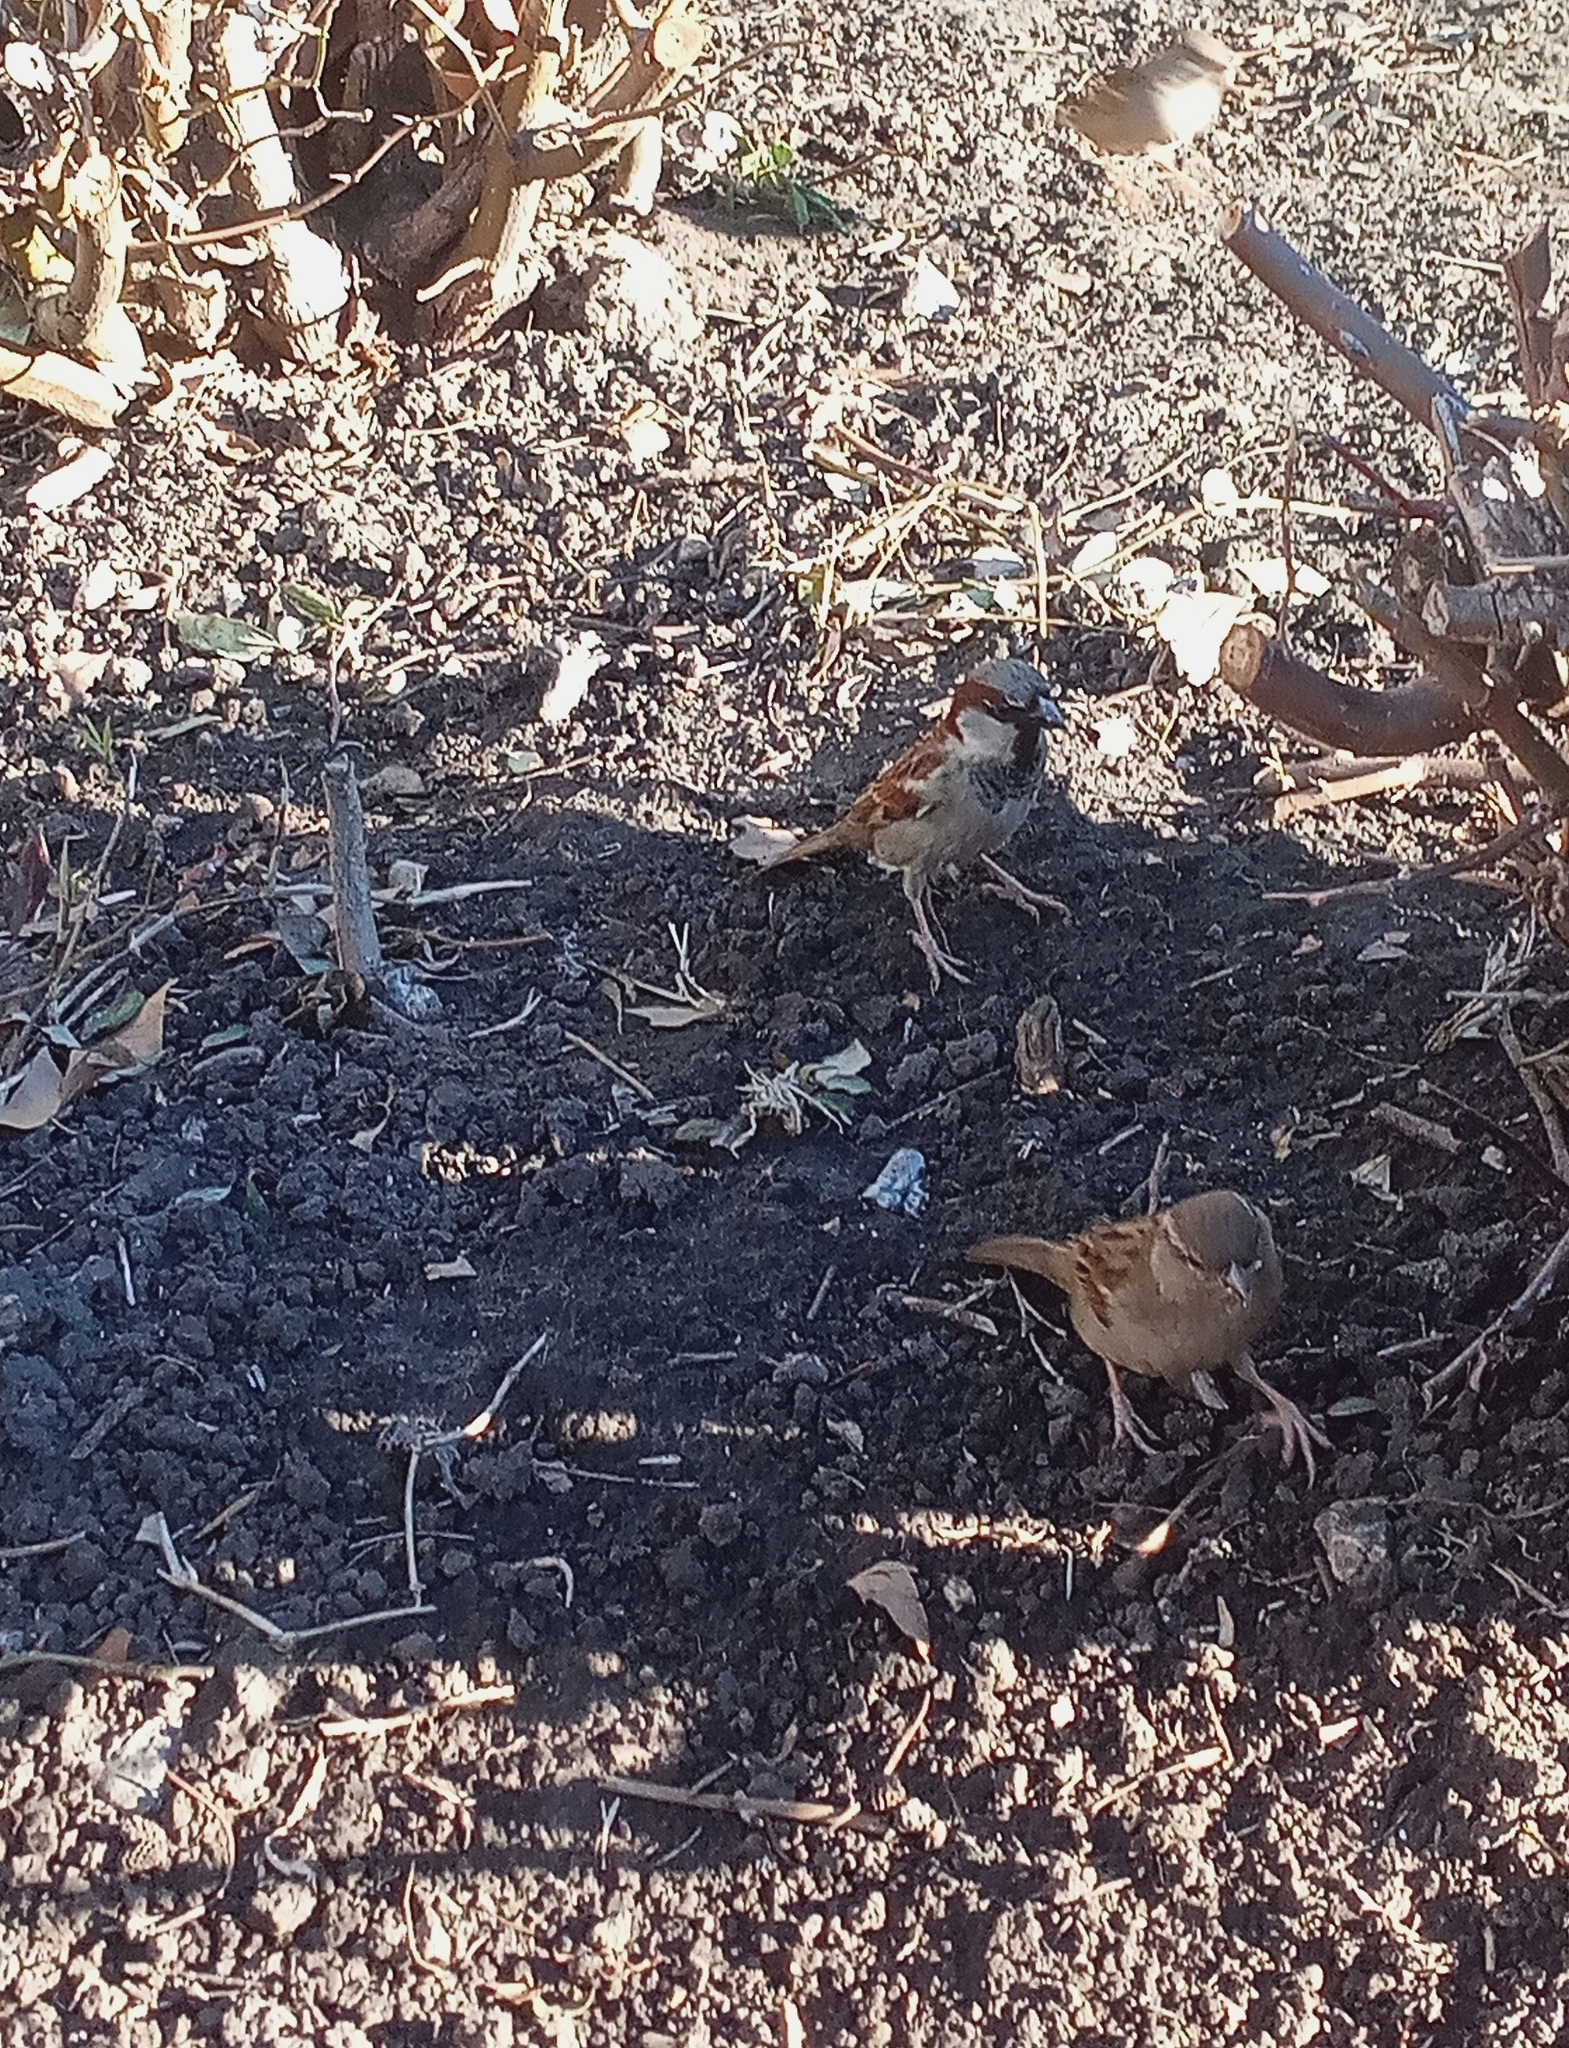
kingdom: Animalia
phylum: Chordata
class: Aves
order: Passeriformes
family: Passeridae
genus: Passer
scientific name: Passer domesticus
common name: House sparrow
